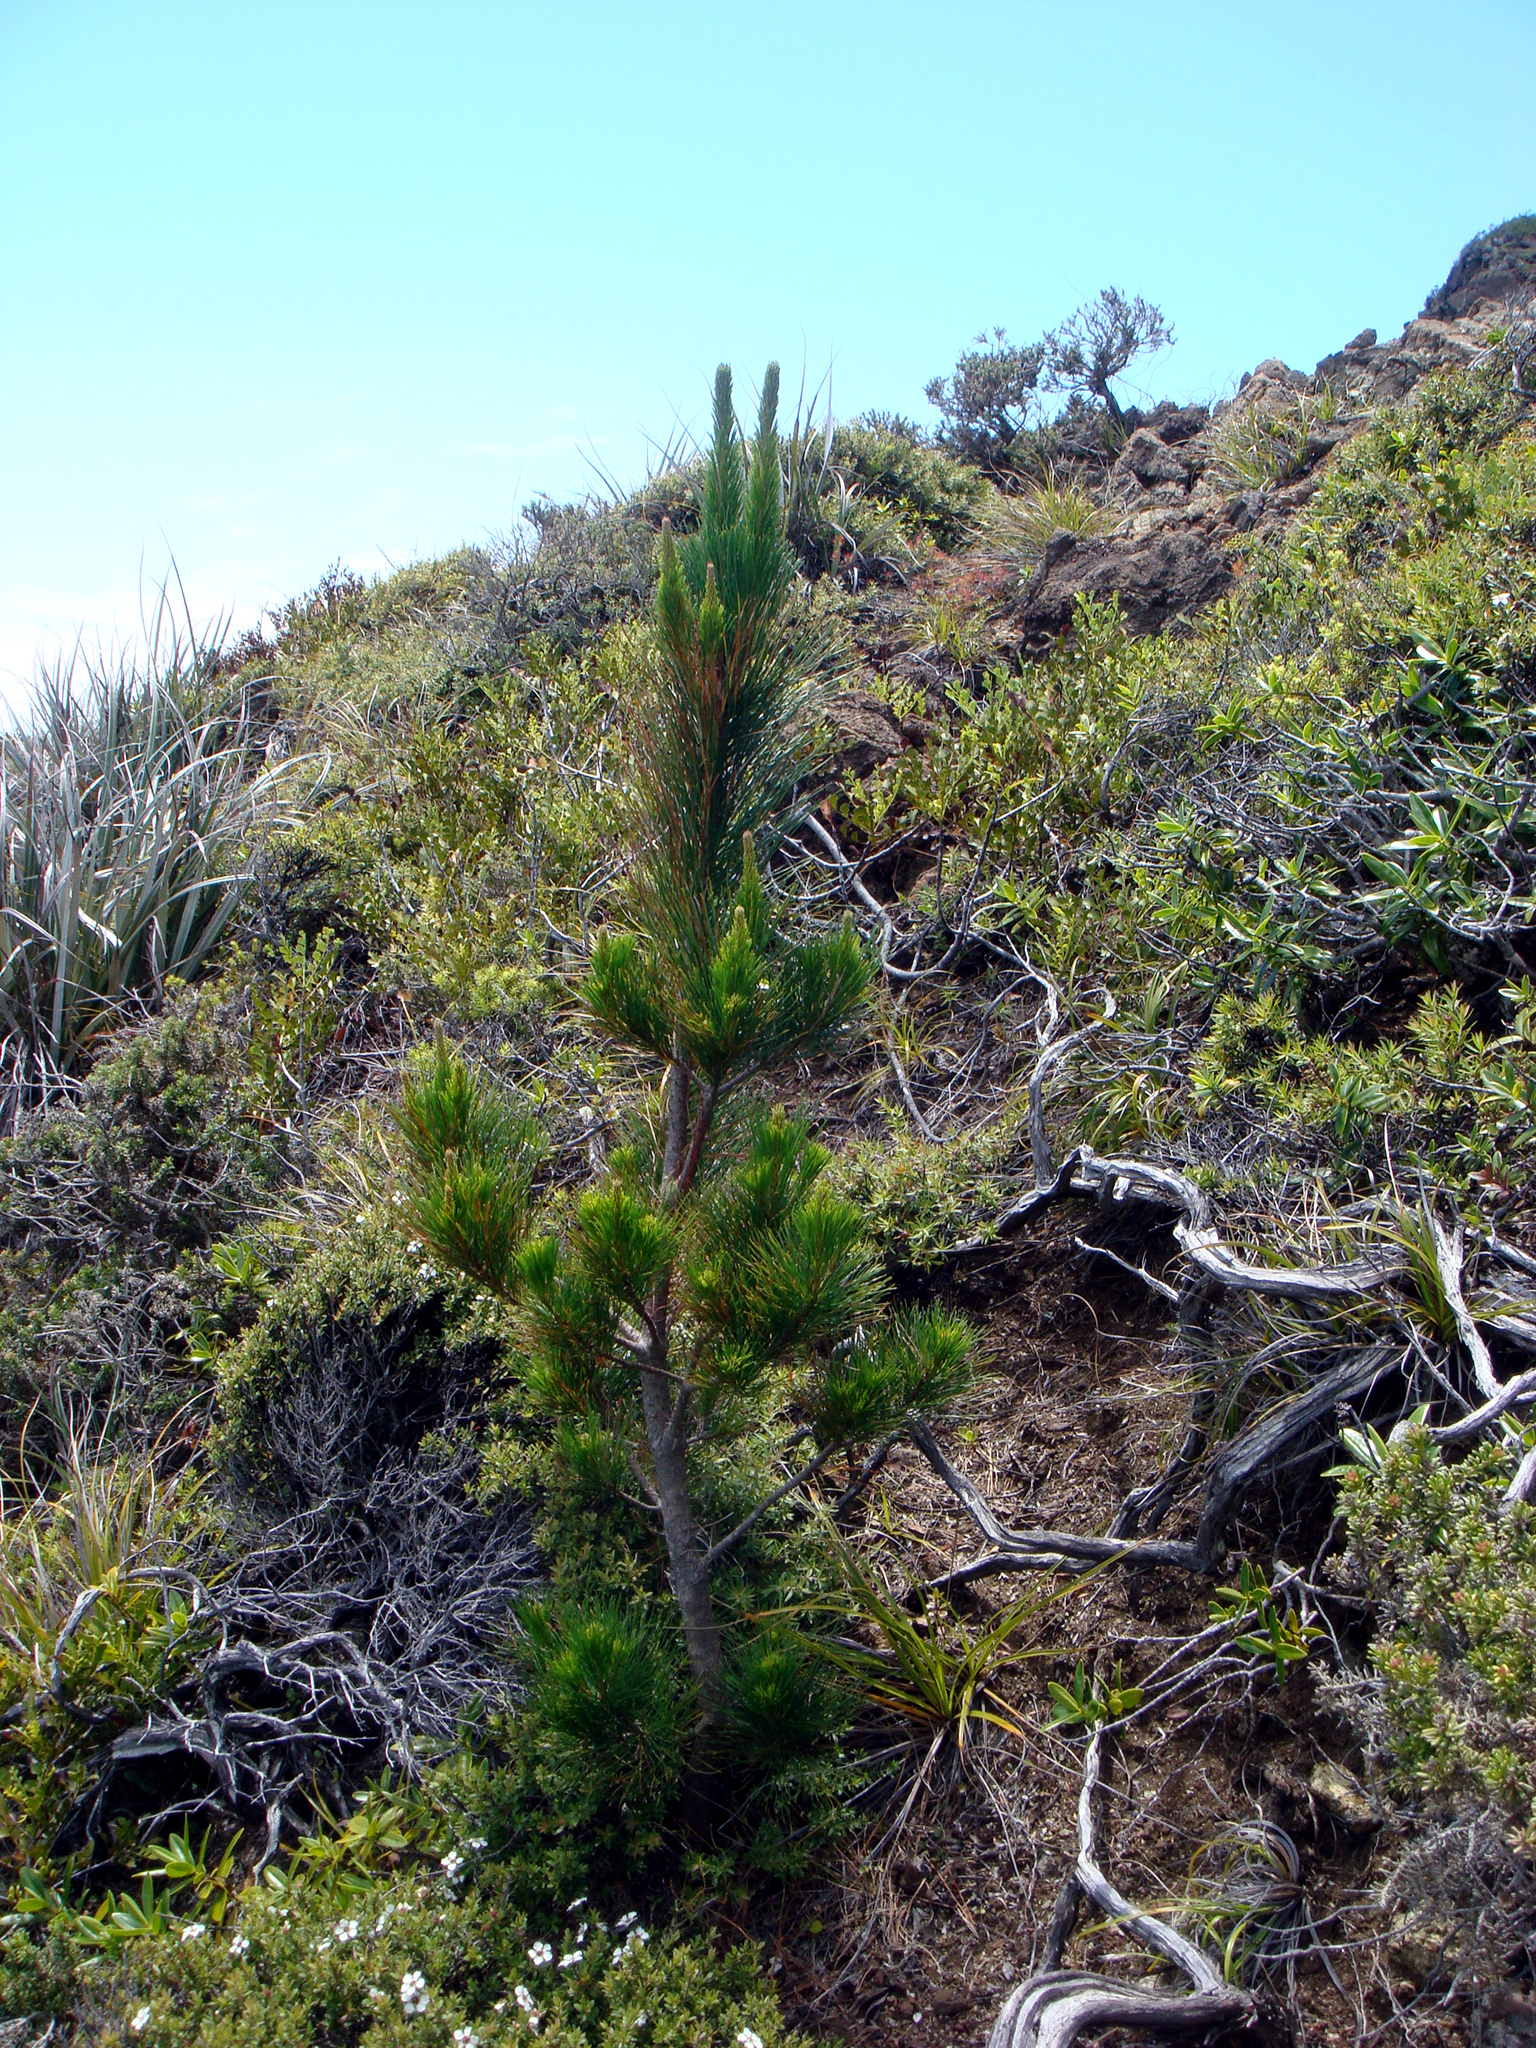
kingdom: Plantae
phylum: Tracheophyta
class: Pinopsida
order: Pinales
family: Pinaceae
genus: Pinus
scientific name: Pinus radiata
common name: Monterey pine
